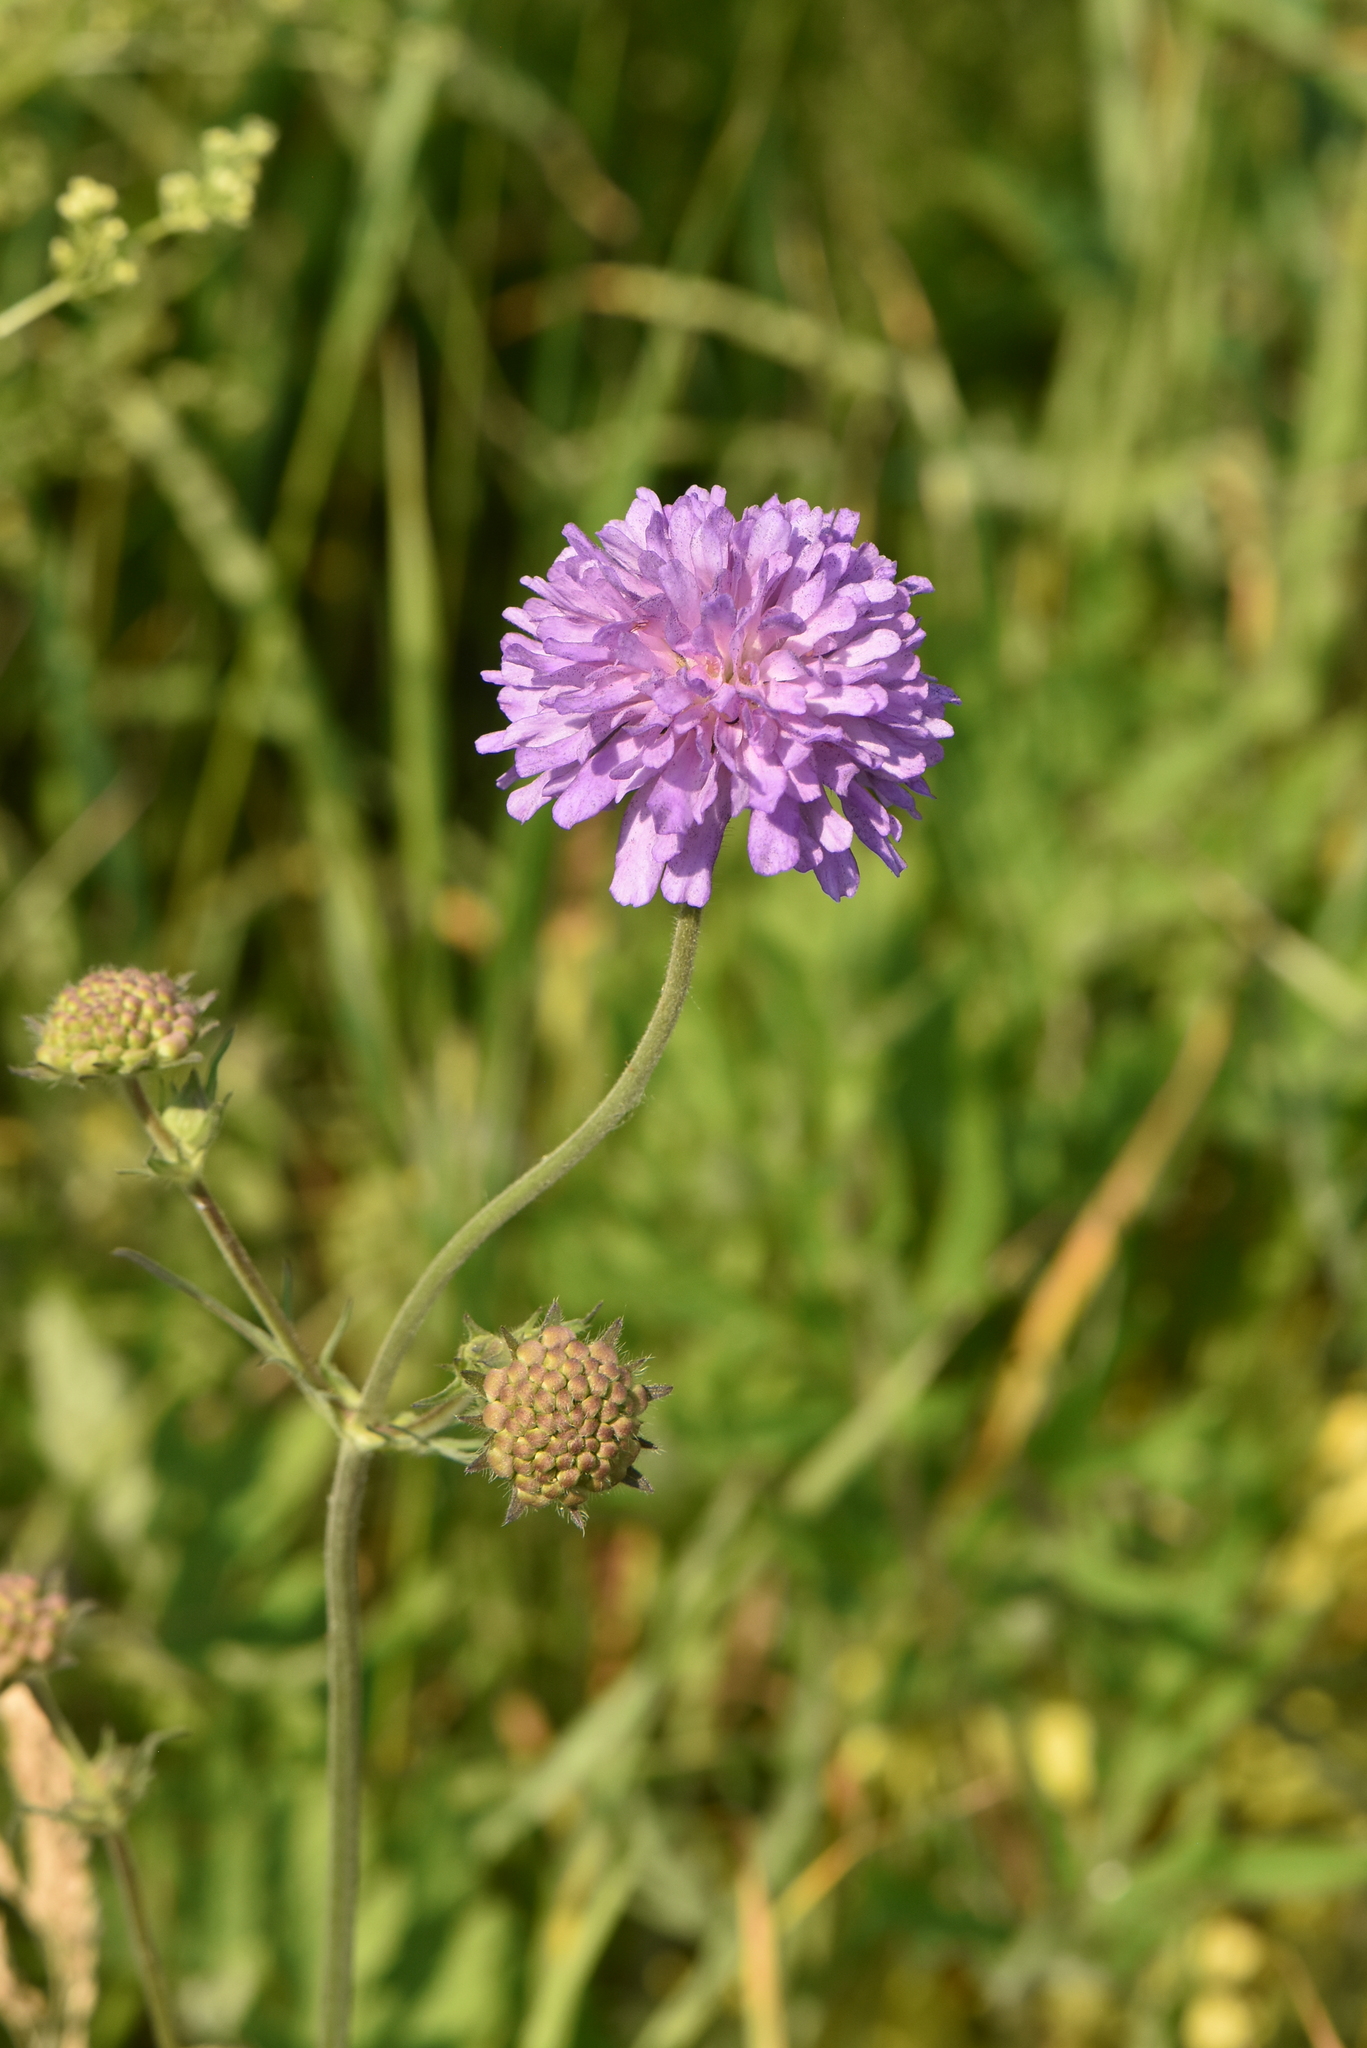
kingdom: Plantae
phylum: Tracheophyta
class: Magnoliopsida
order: Dipsacales
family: Caprifoliaceae
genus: Knautia
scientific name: Knautia arvensis
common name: Field scabiosa
